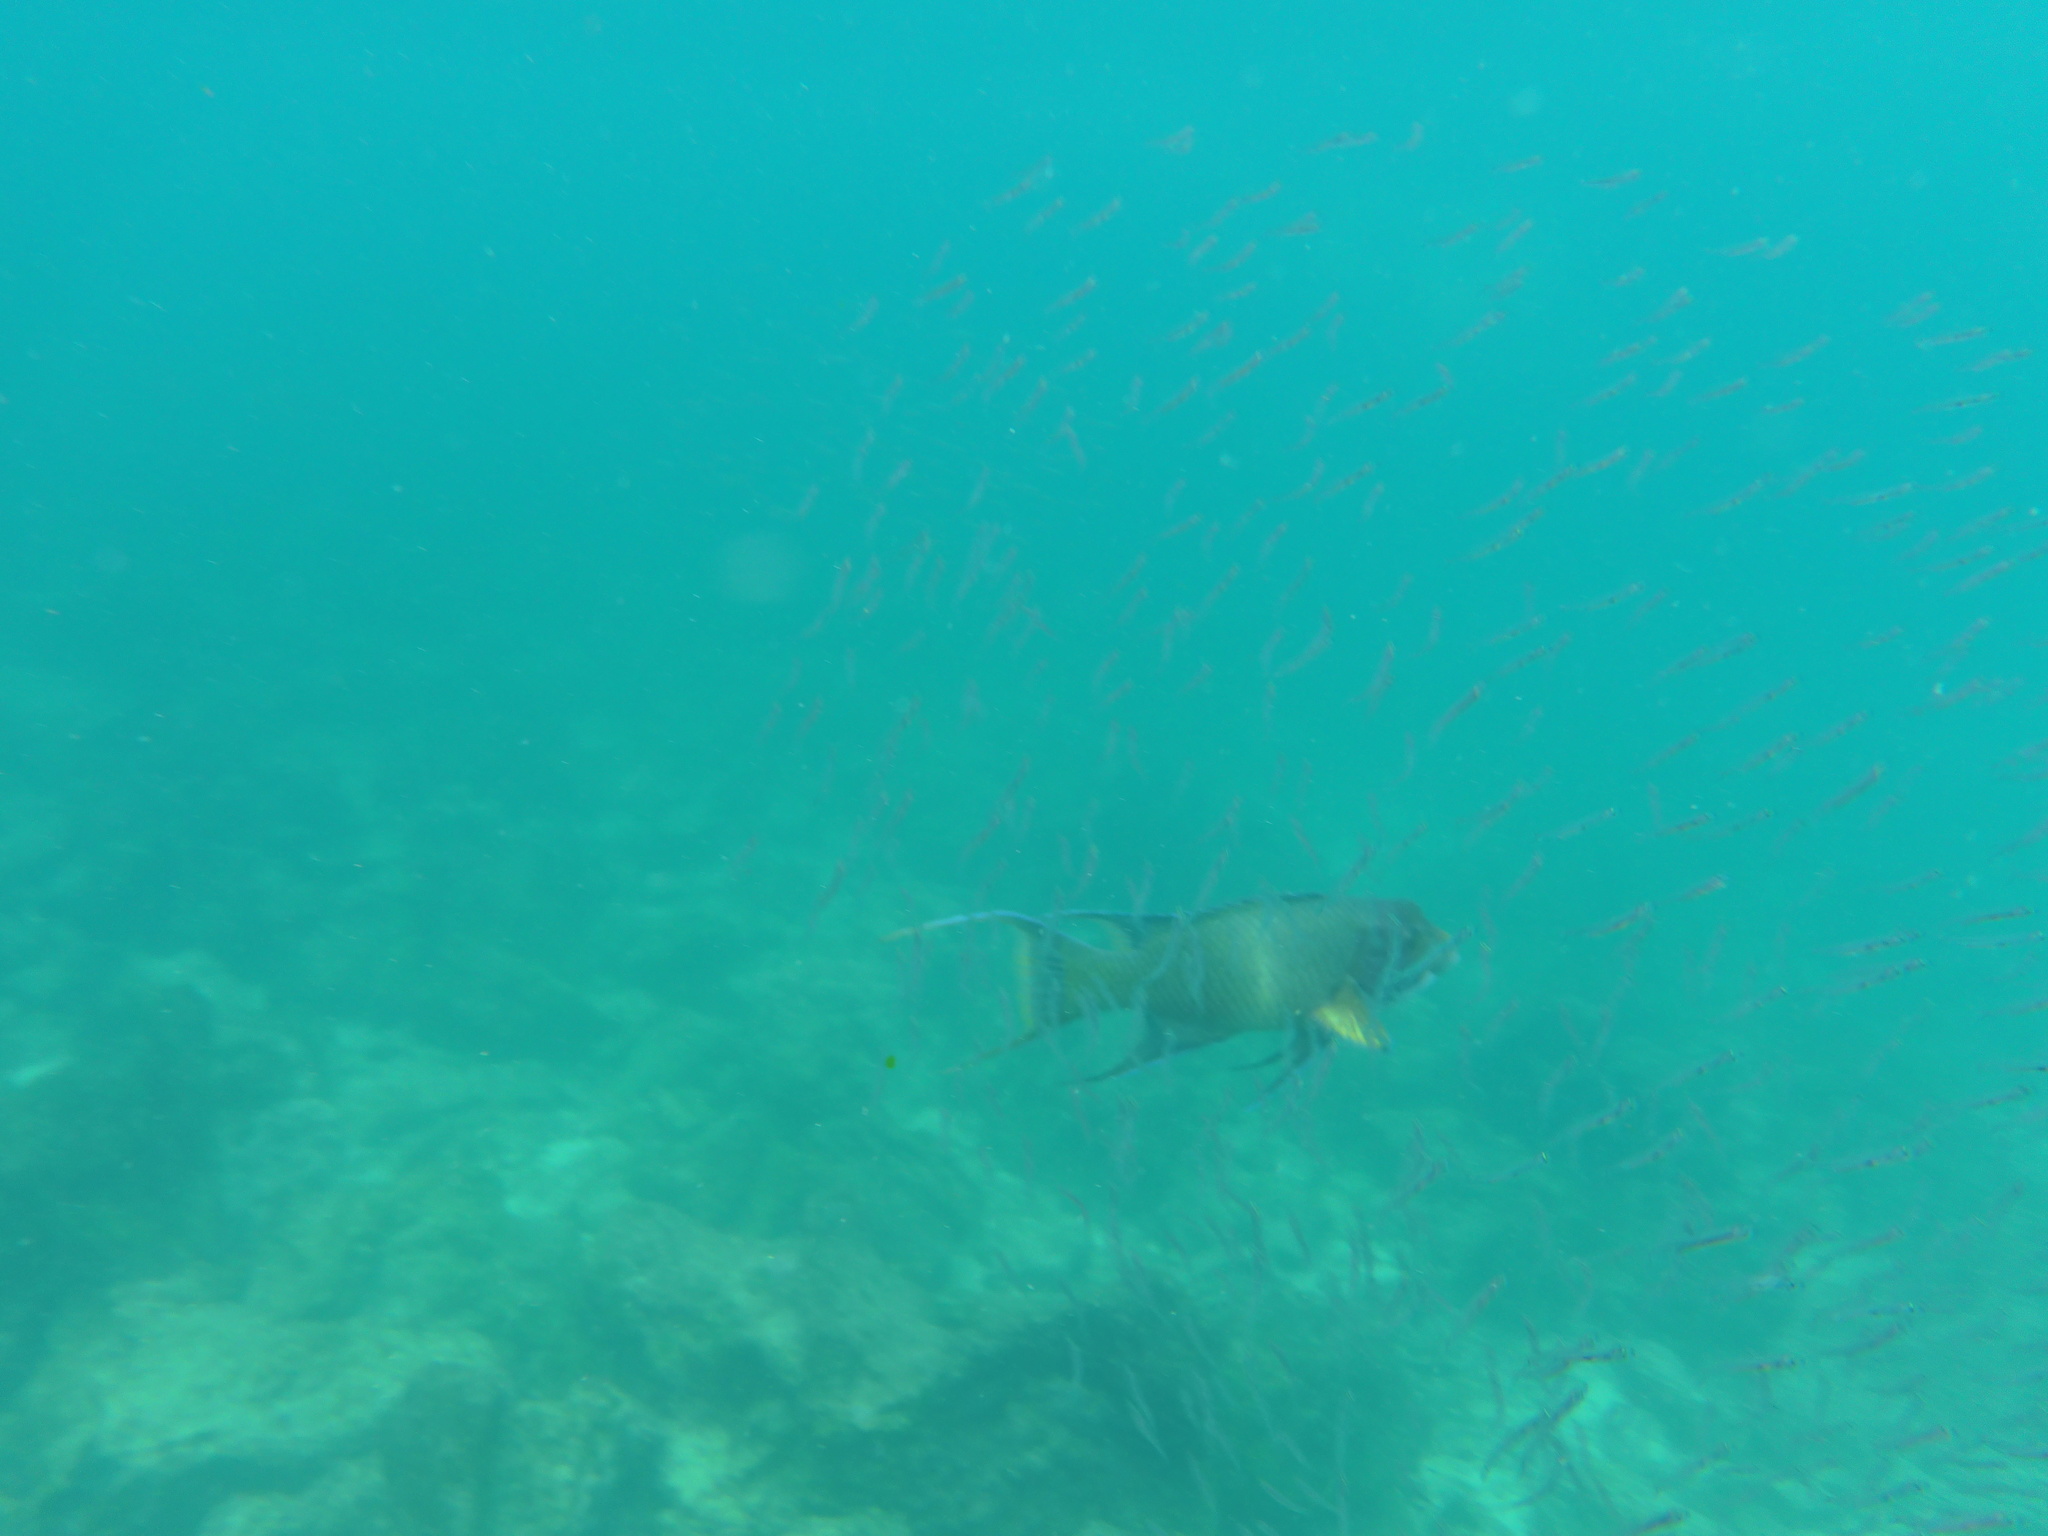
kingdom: Animalia
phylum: Chordata
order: Perciformes
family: Labridae
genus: Bodianus
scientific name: Bodianus diplotaenia
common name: Mexican hogfish
